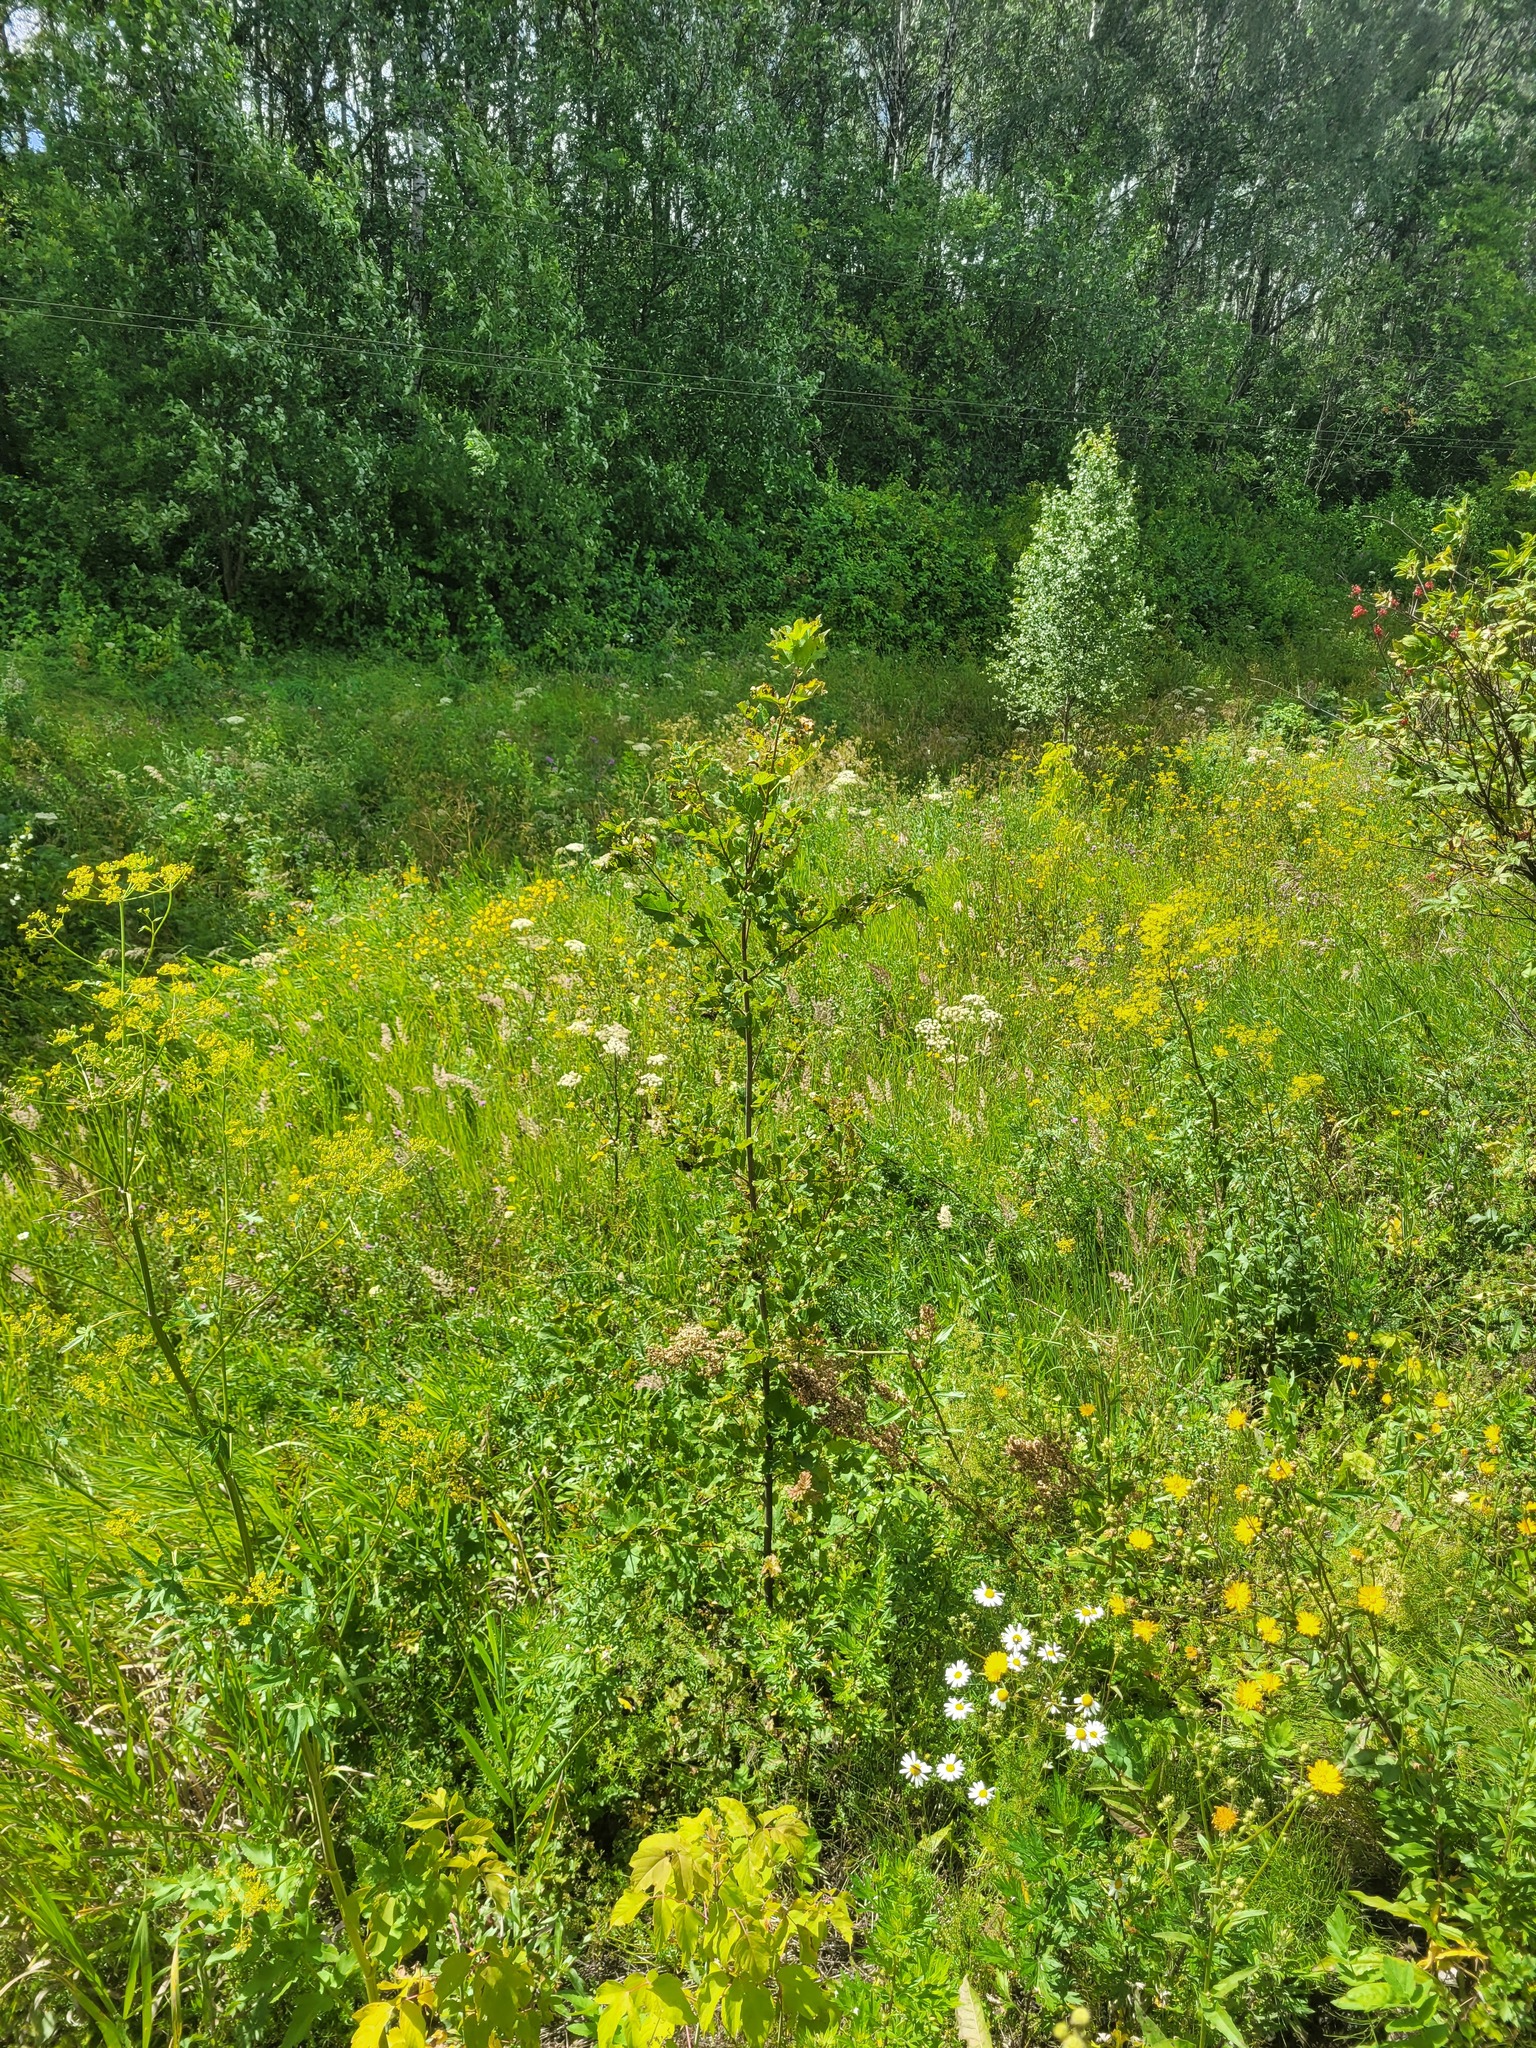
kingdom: Plantae
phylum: Tracheophyta
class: Magnoliopsida
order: Sapindales
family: Sapindaceae
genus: Acer
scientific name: Acer tataricum
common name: Tartar maple
